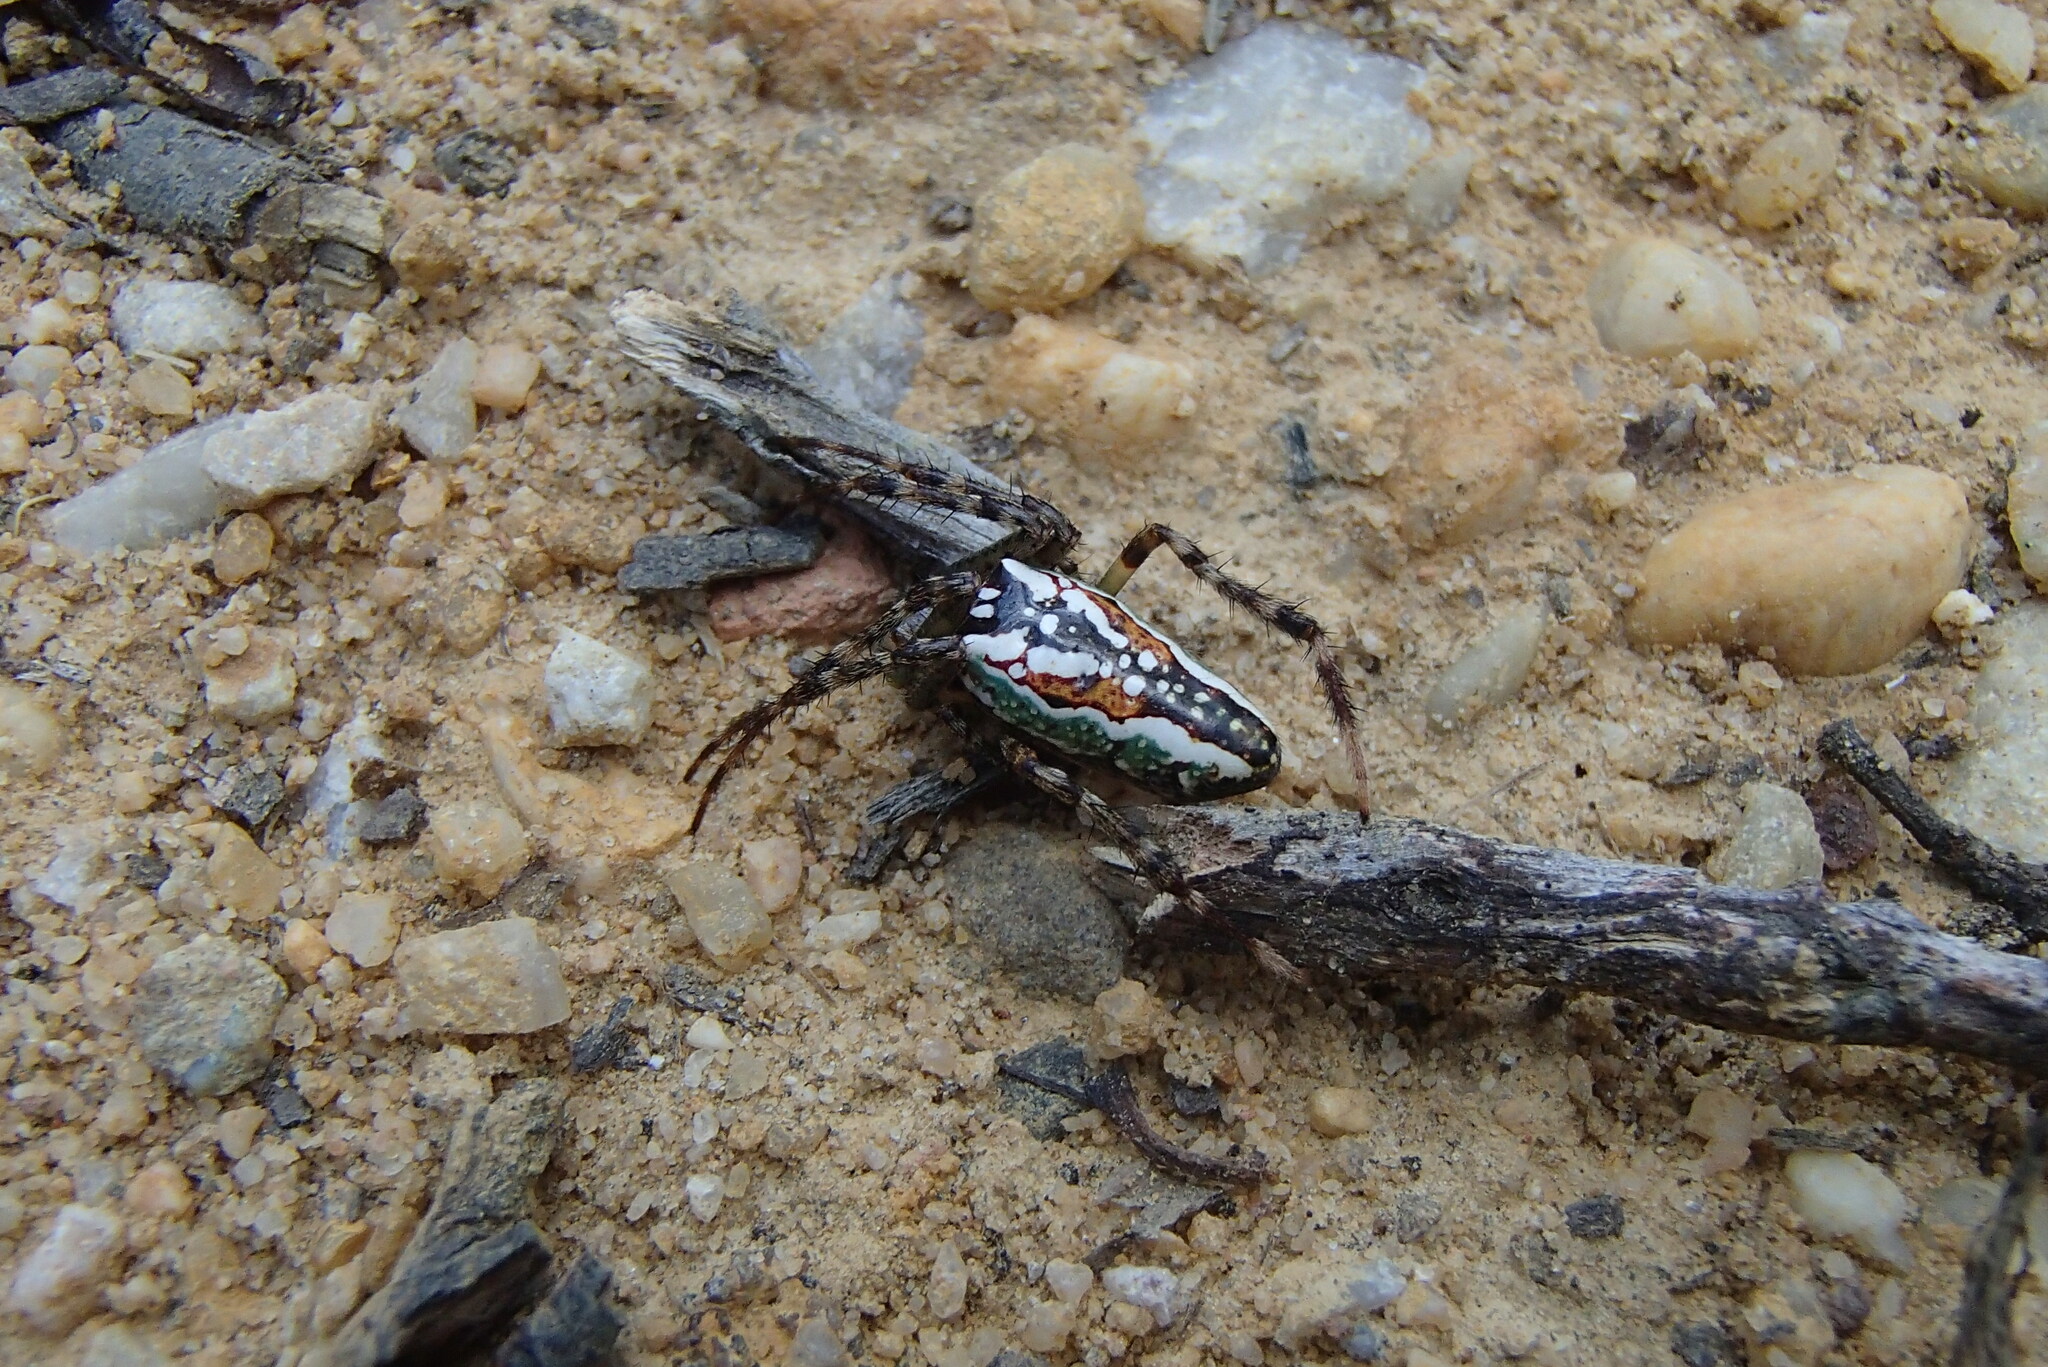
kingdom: Animalia
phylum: Arthropoda
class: Arachnida
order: Araneae
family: Araneidae
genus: Plebs
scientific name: Plebs bradleyi
